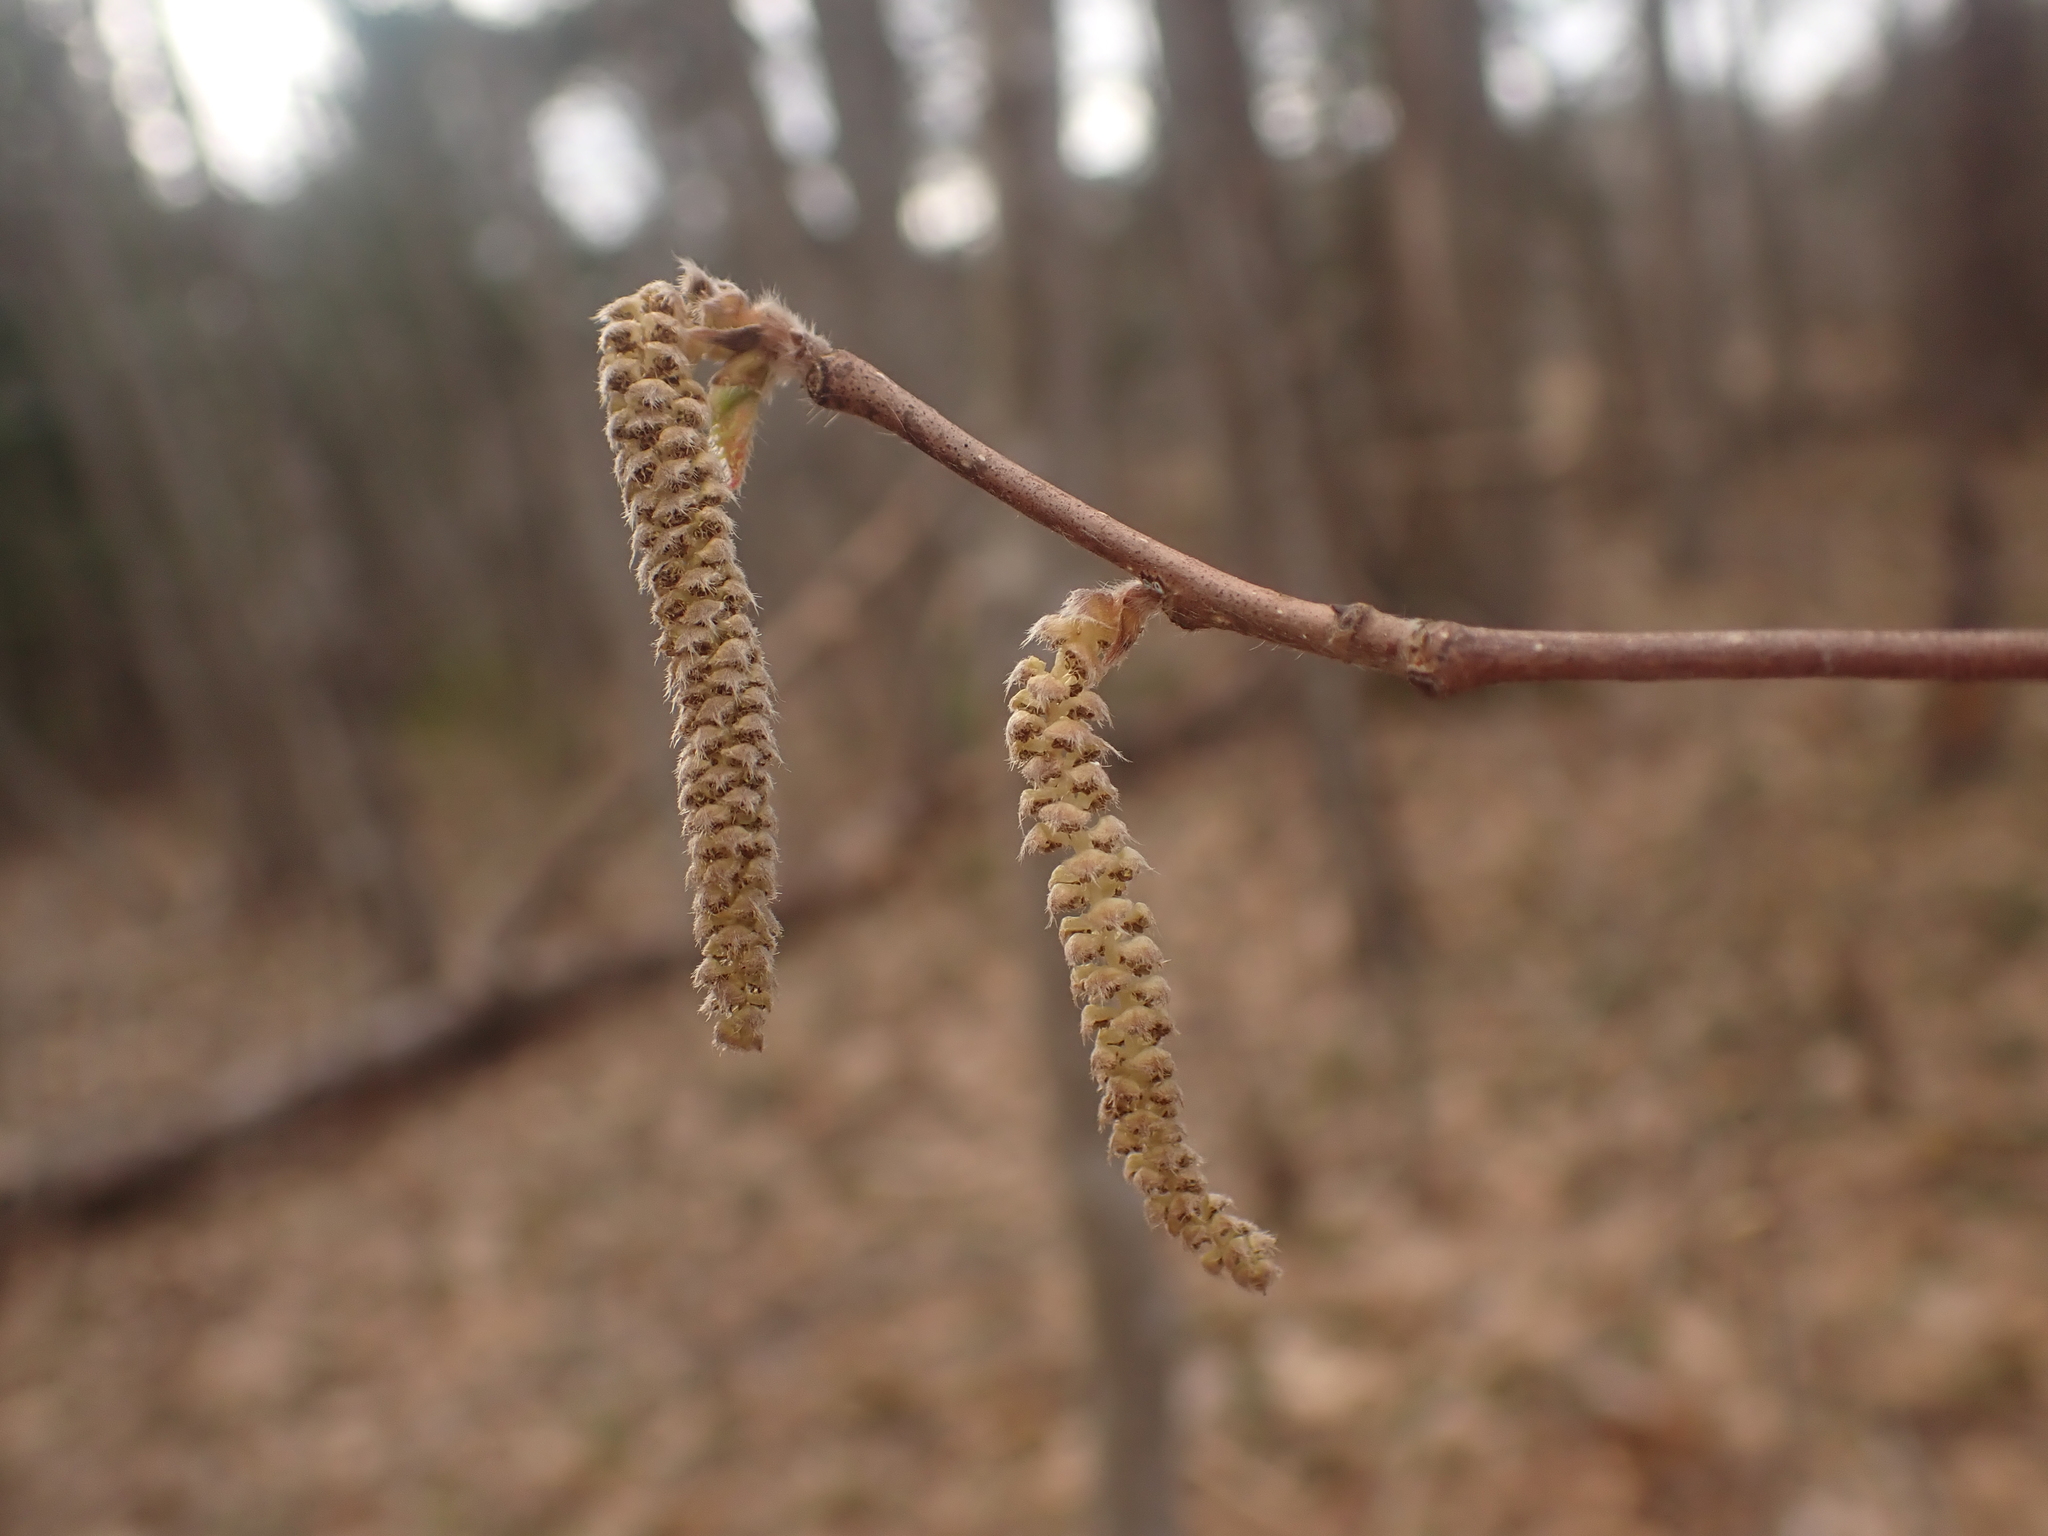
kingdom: Plantae
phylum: Tracheophyta
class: Magnoliopsida
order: Fagales
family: Betulaceae
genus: Corylus
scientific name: Corylus cornuta
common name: Beaked hazel
